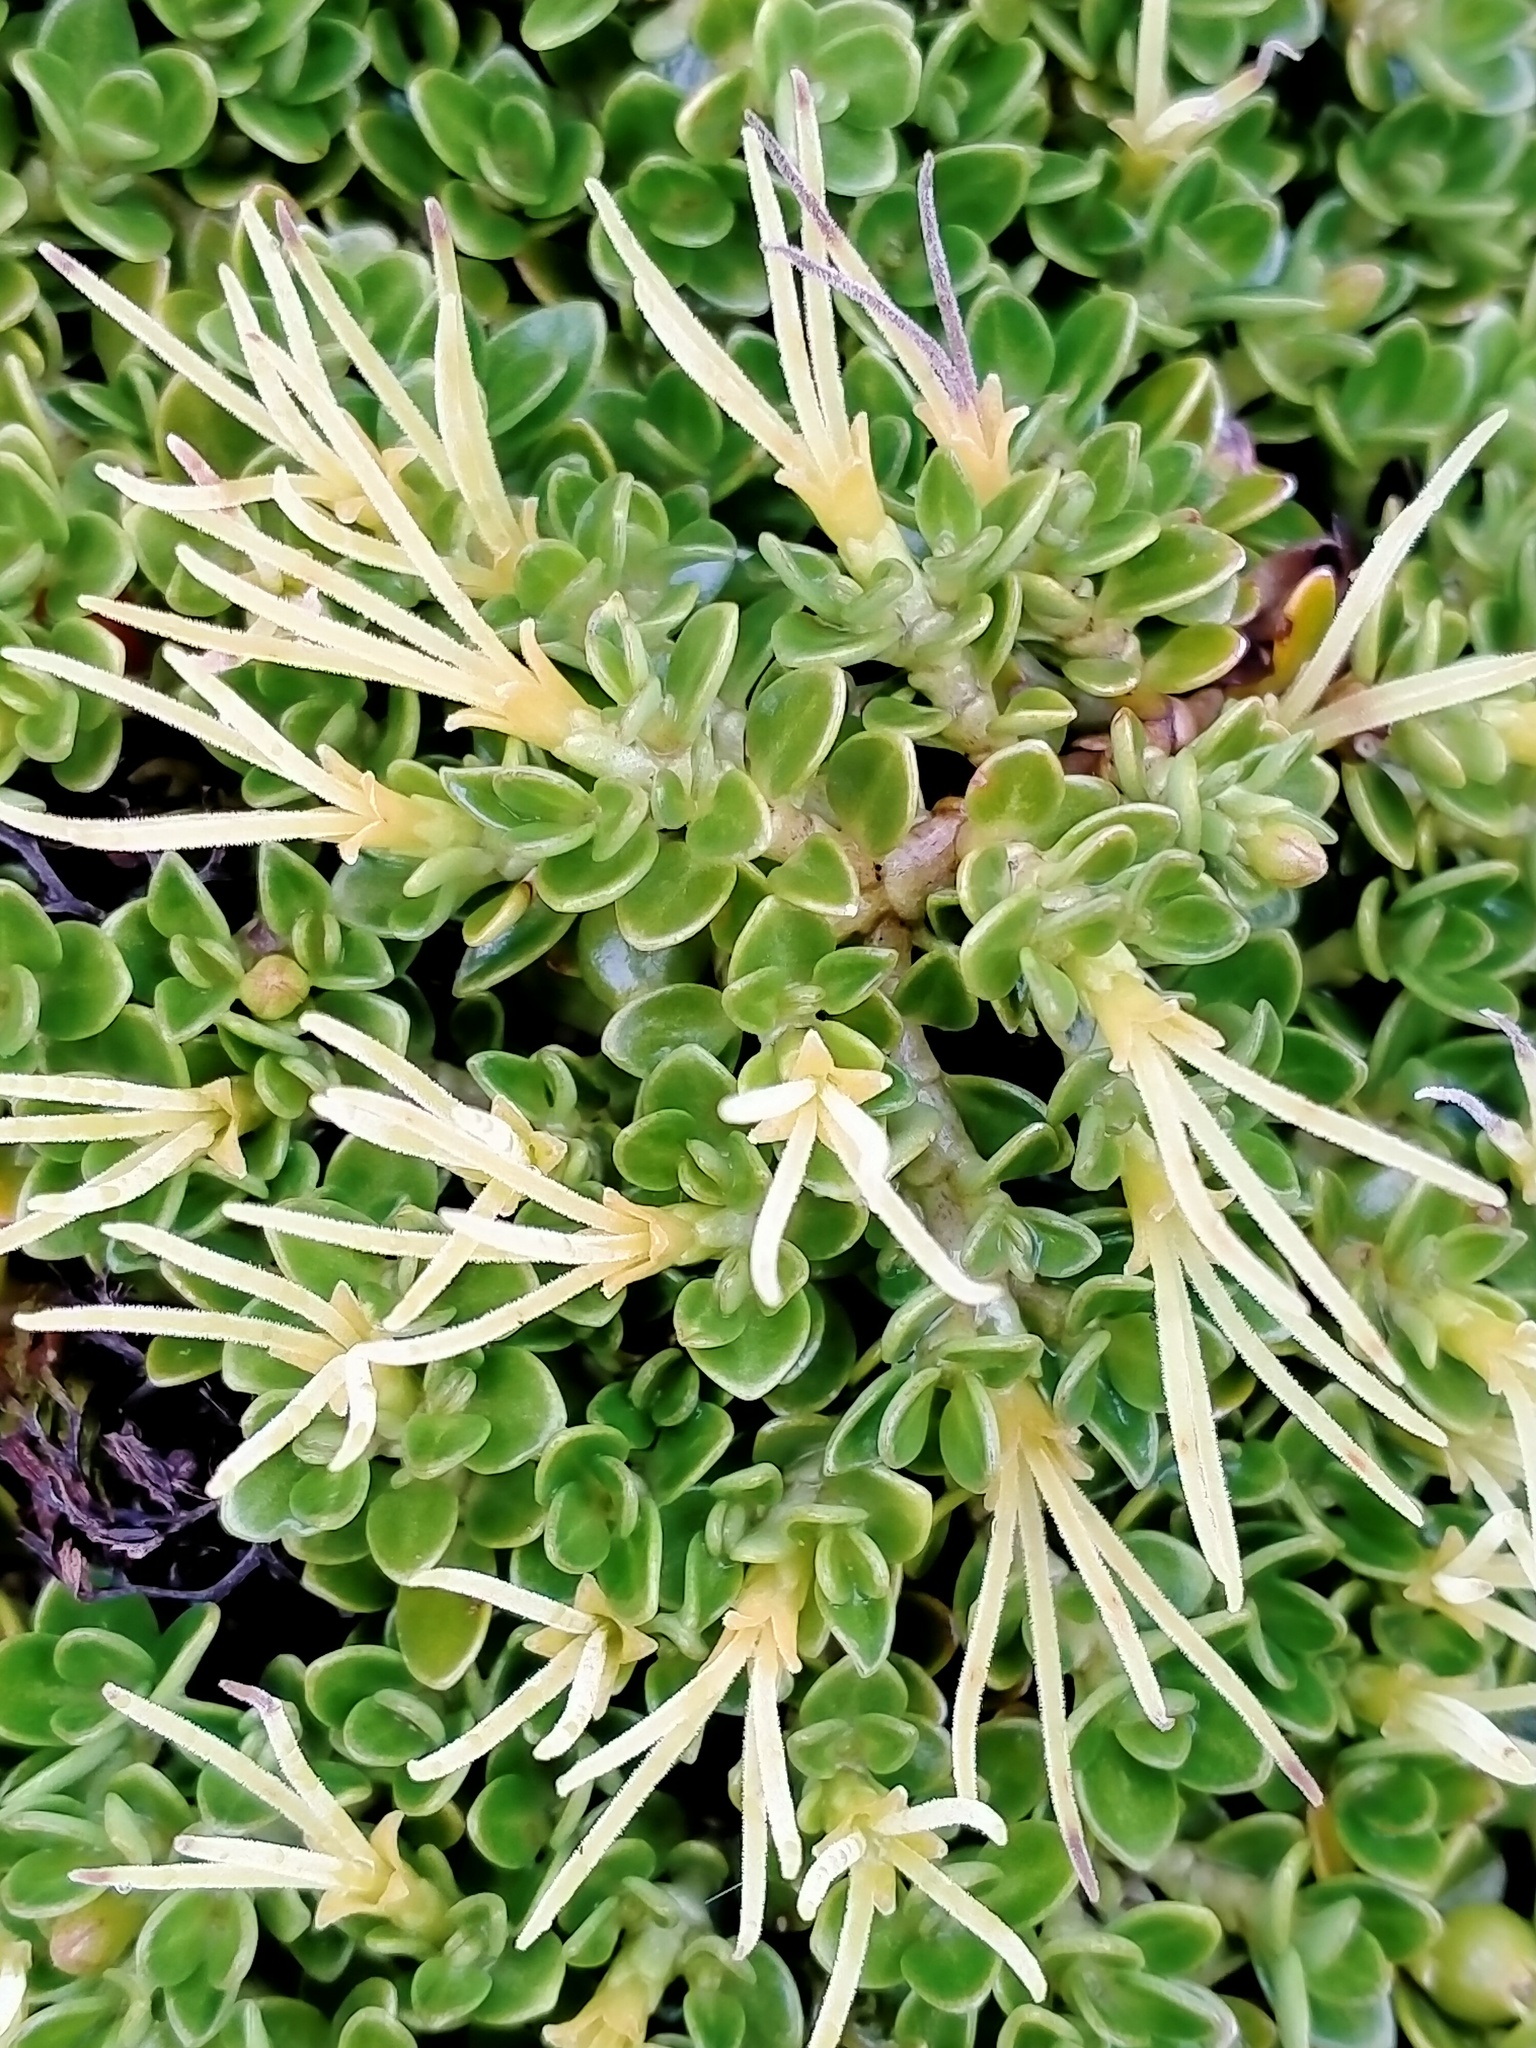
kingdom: Plantae
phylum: Tracheophyta
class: Magnoliopsida
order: Gentianales
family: Rubiaceae
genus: Coprosma
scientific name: Coprosma perpusilla
